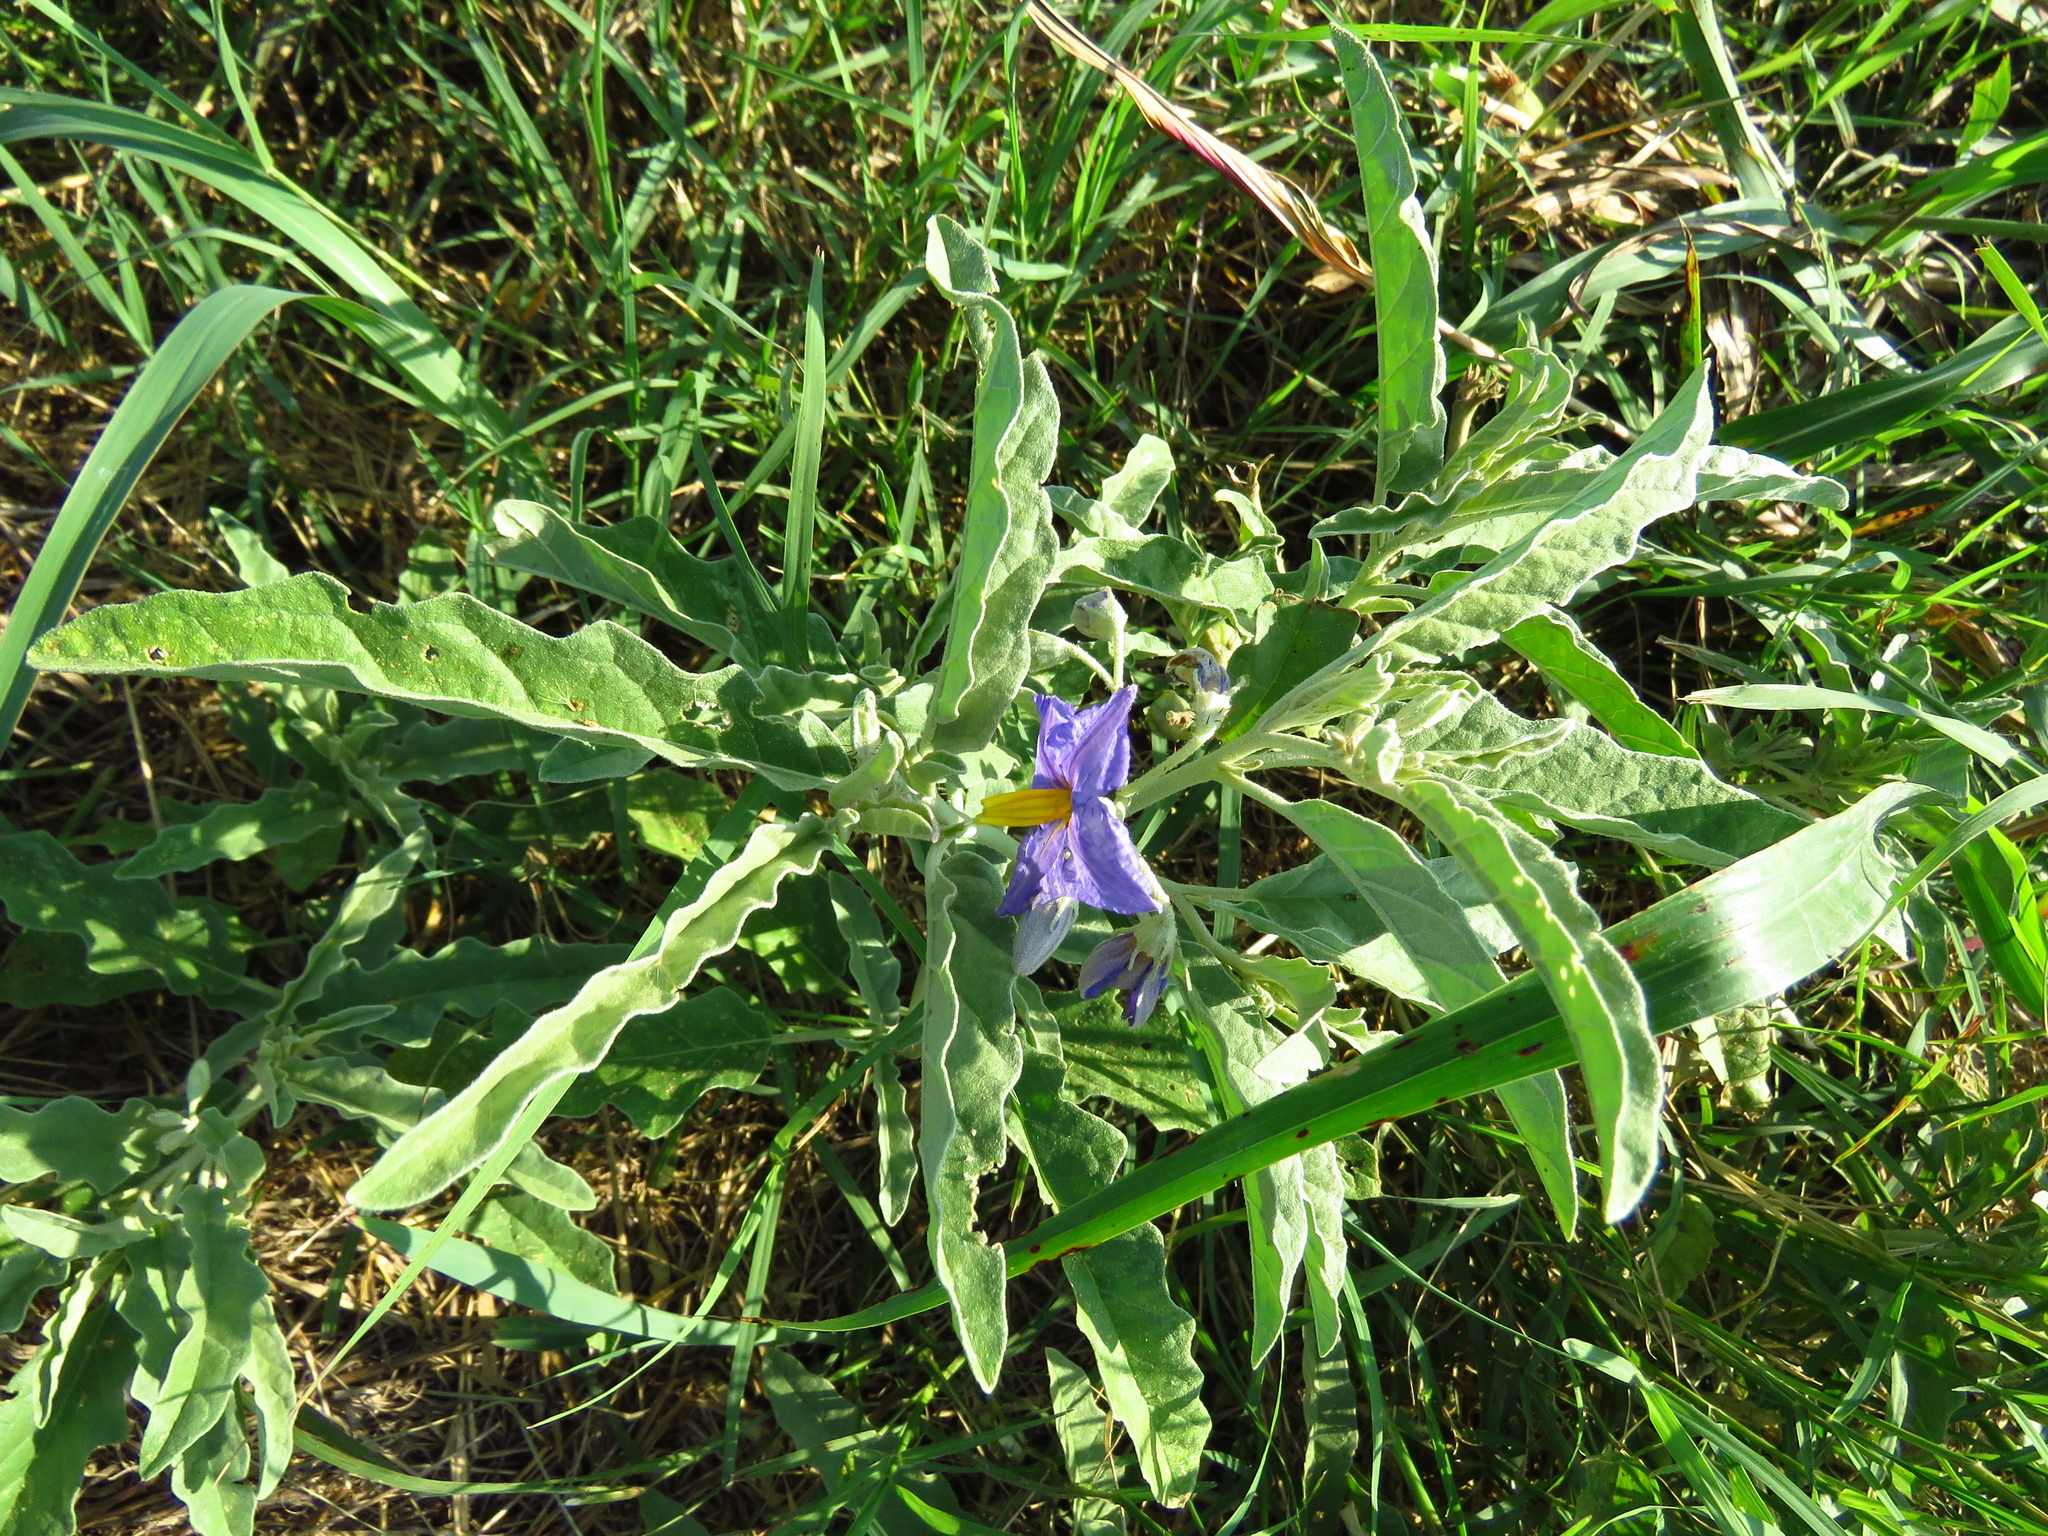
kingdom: Plantae
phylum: Tracheophyta
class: Magnoliopsida
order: Solanales
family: Solanaceae
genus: Solanum
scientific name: Solanum elaeagnifolium
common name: Silverleaf nightshade
